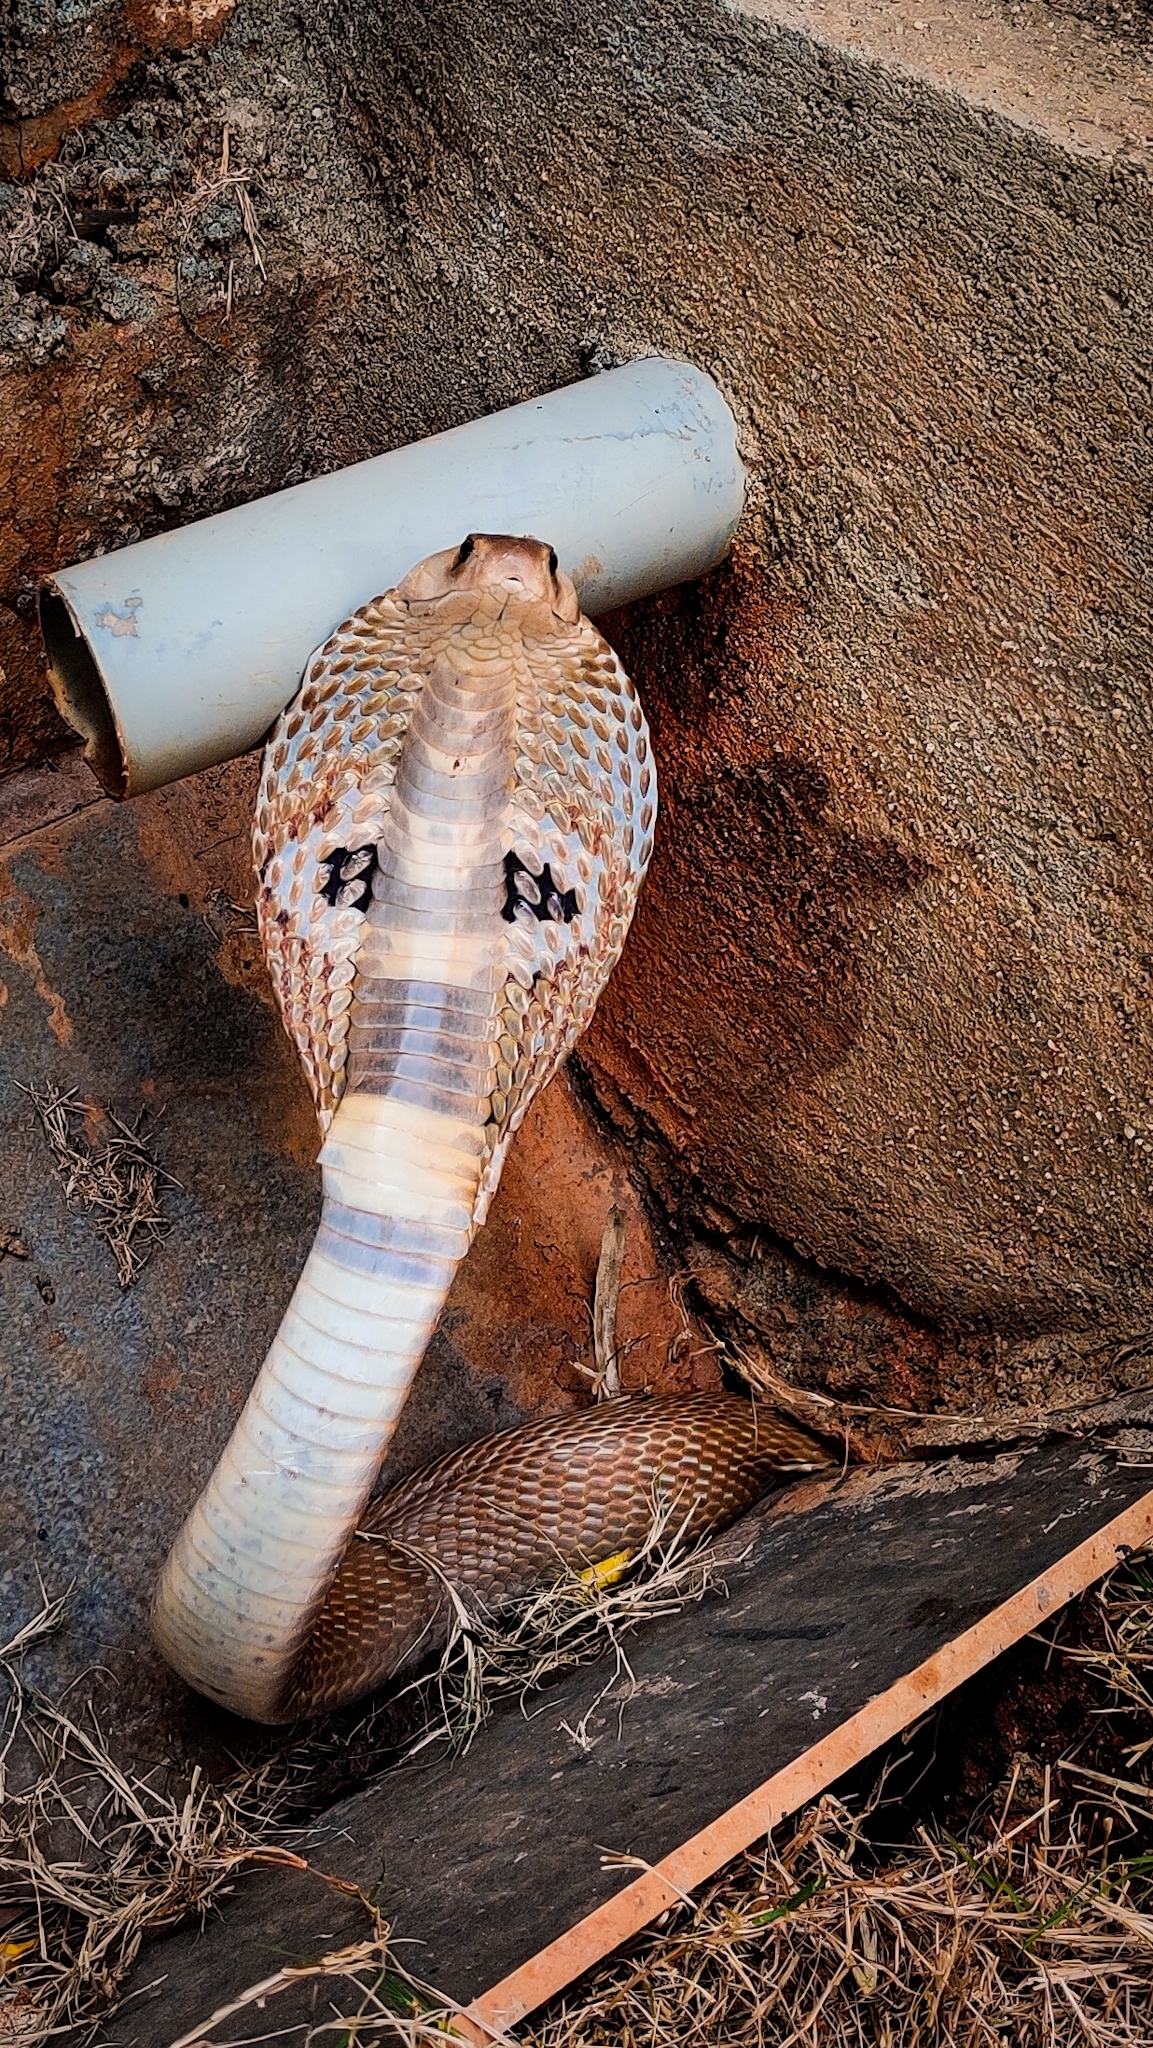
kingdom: Animalia
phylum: Chordata
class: Squamata
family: Elapidae
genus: Naja
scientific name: Naja naja
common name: Indian cobra
